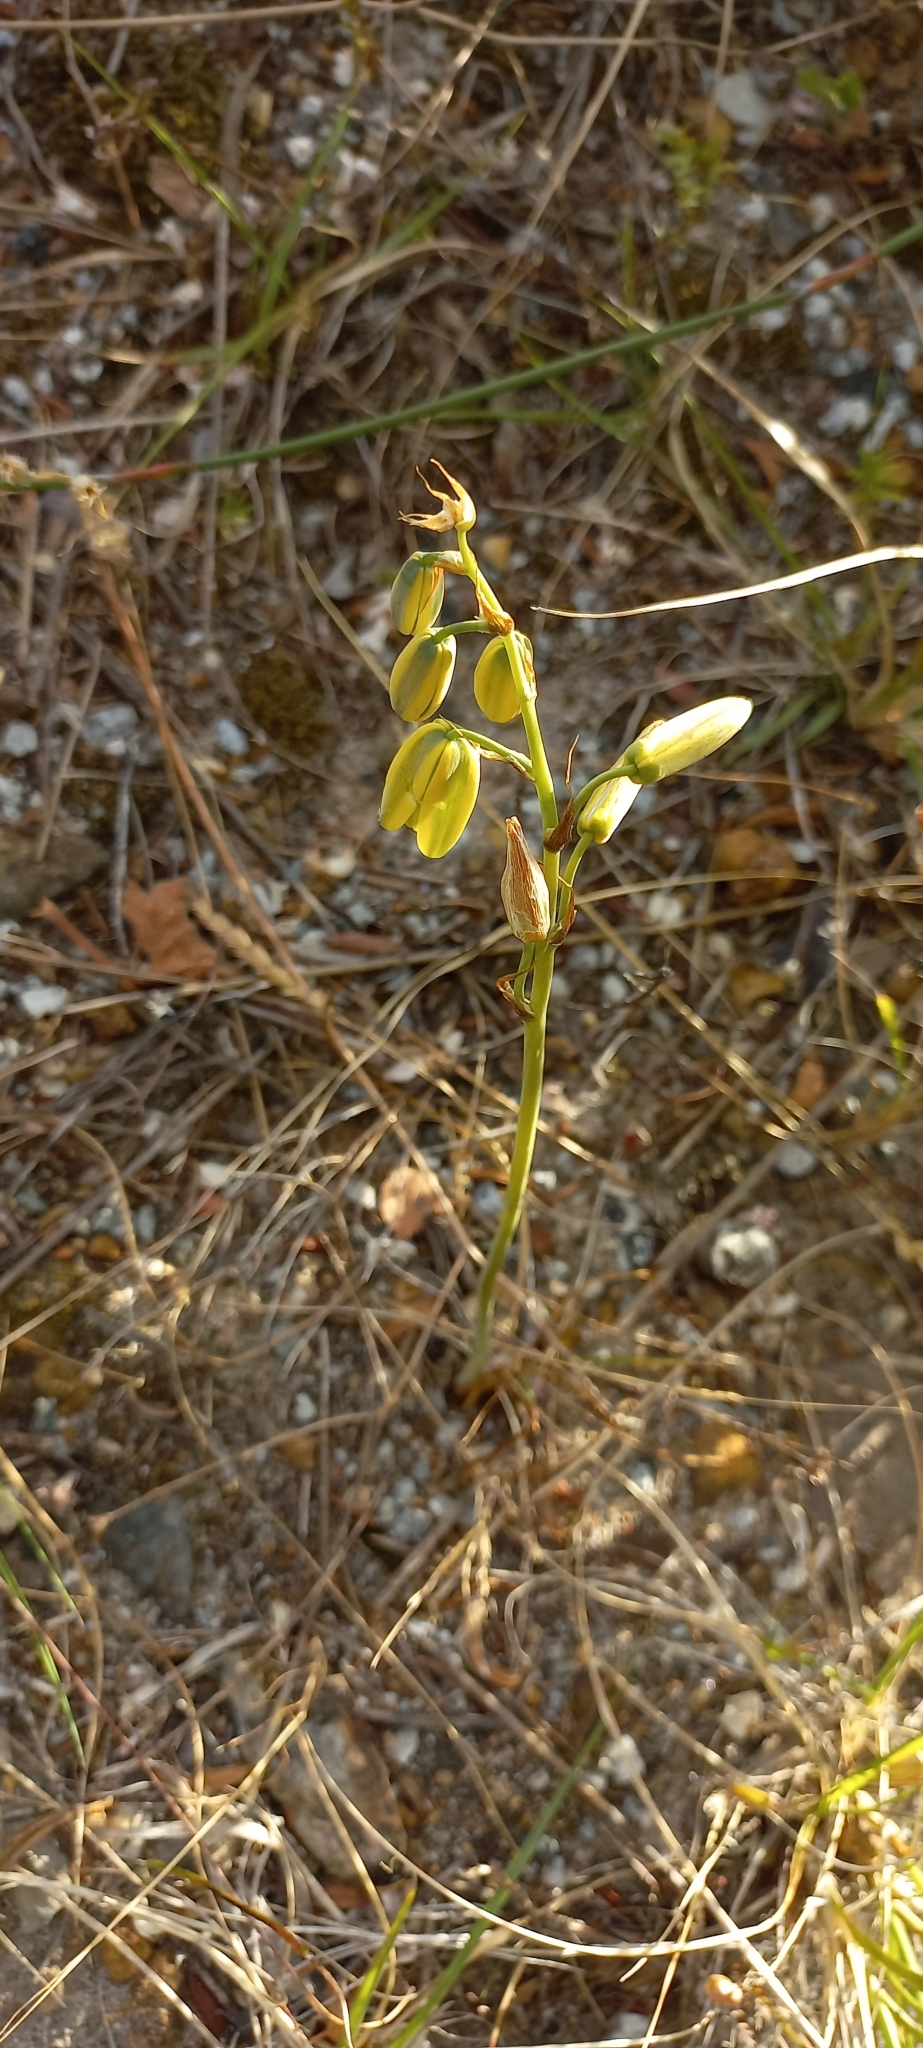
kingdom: Plantae
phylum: Tracheophyta
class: Liliopsida
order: Asparagales
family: Asparagaceae
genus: Albuca
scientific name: Albuca cooperi
